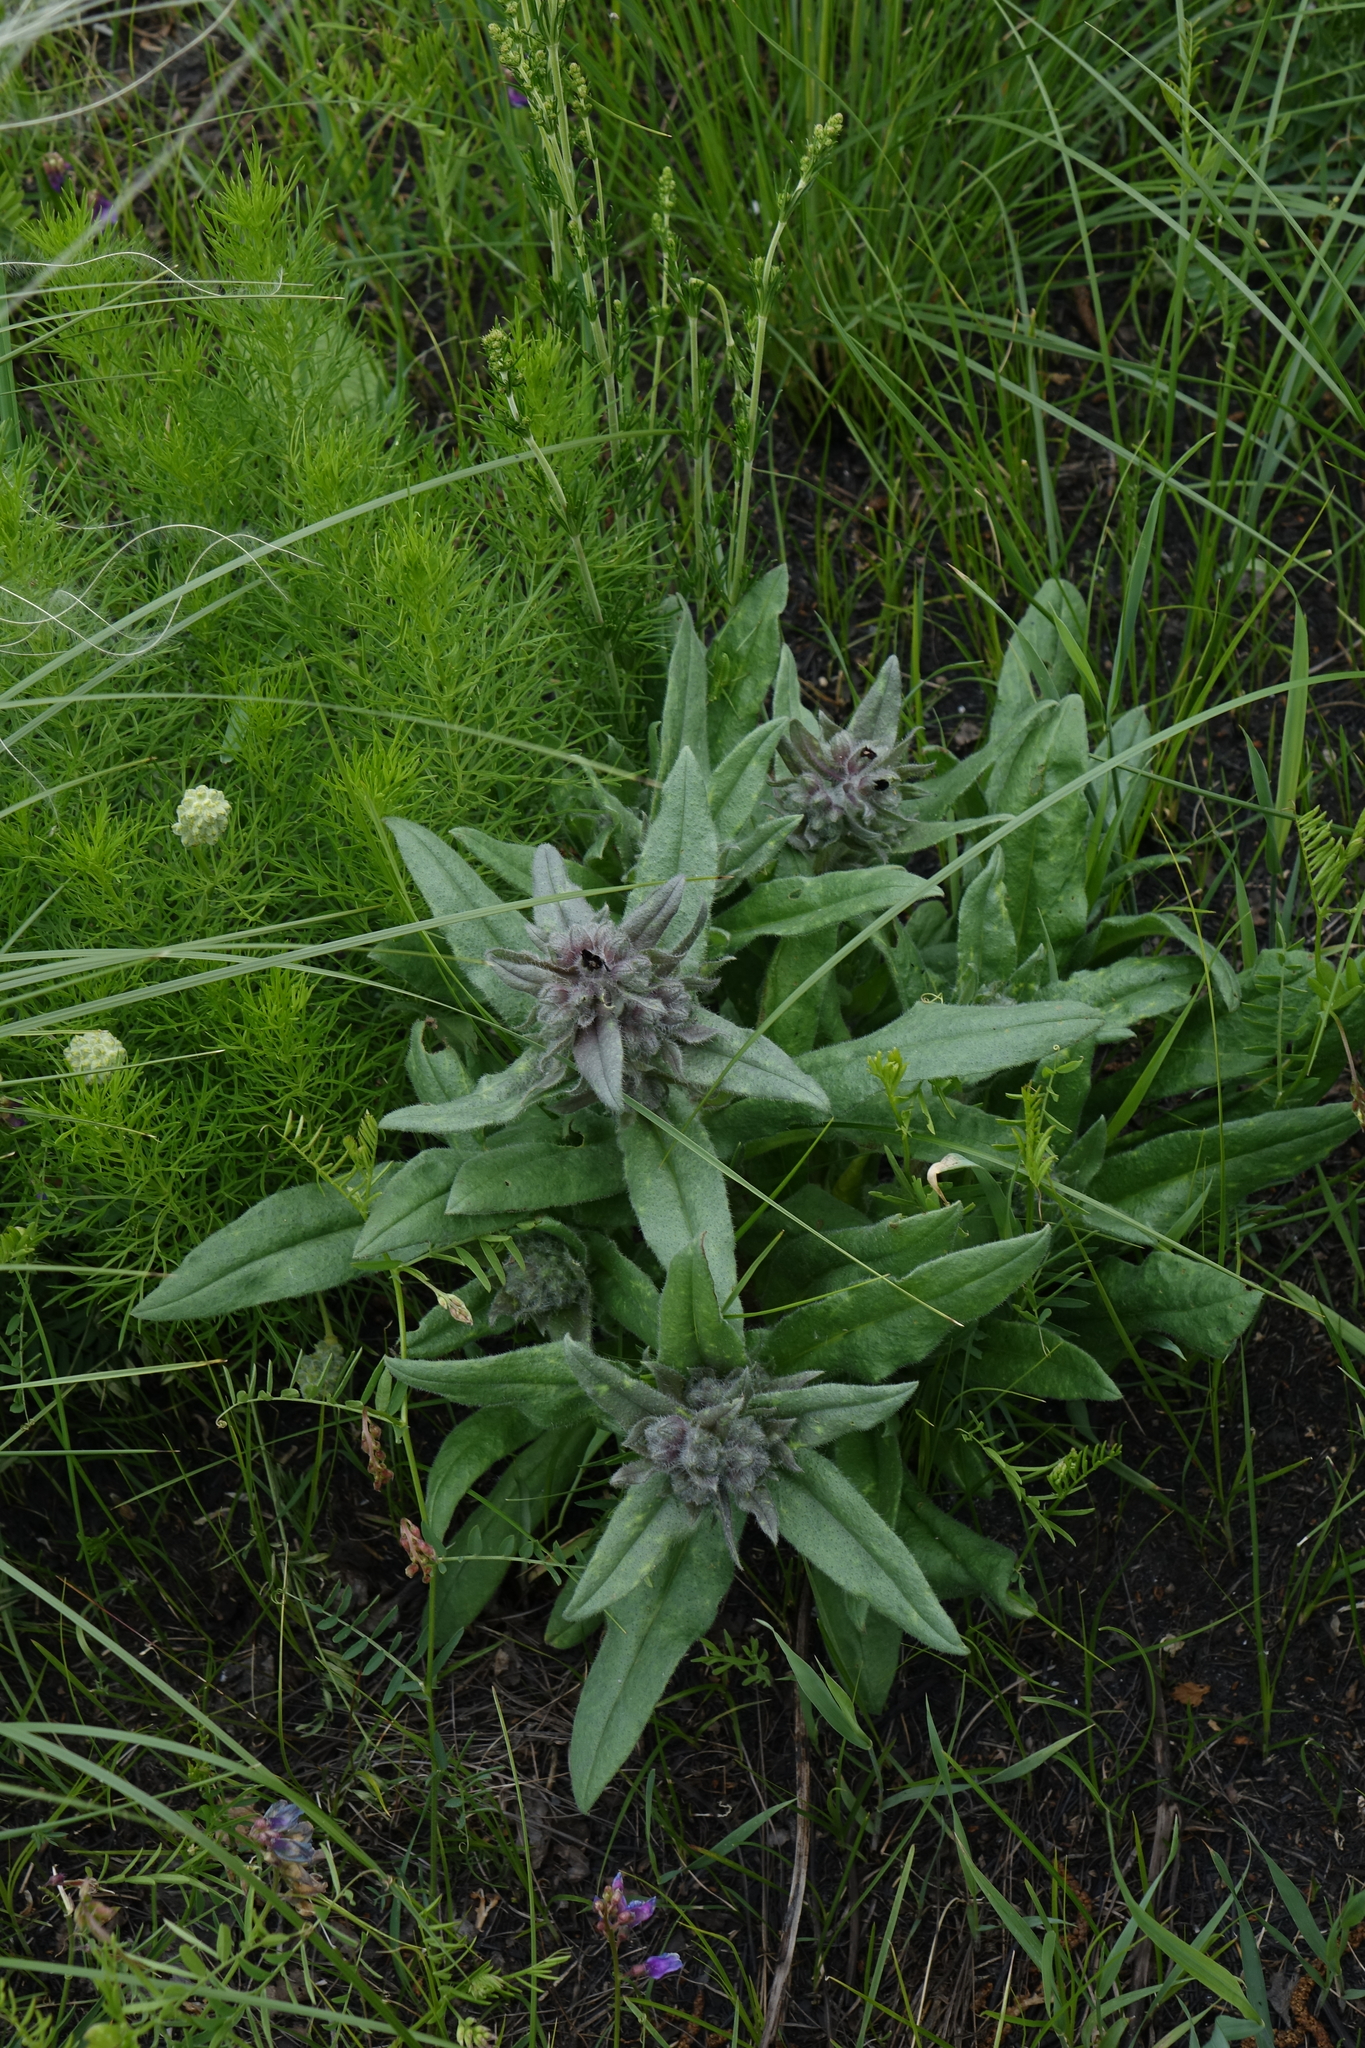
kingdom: Plantae
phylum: Tracheophyta
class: Magnoliopsida
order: Boraginales
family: Boraginaceae
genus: Nonea
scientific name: Nonea pulla
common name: Brown nonea
